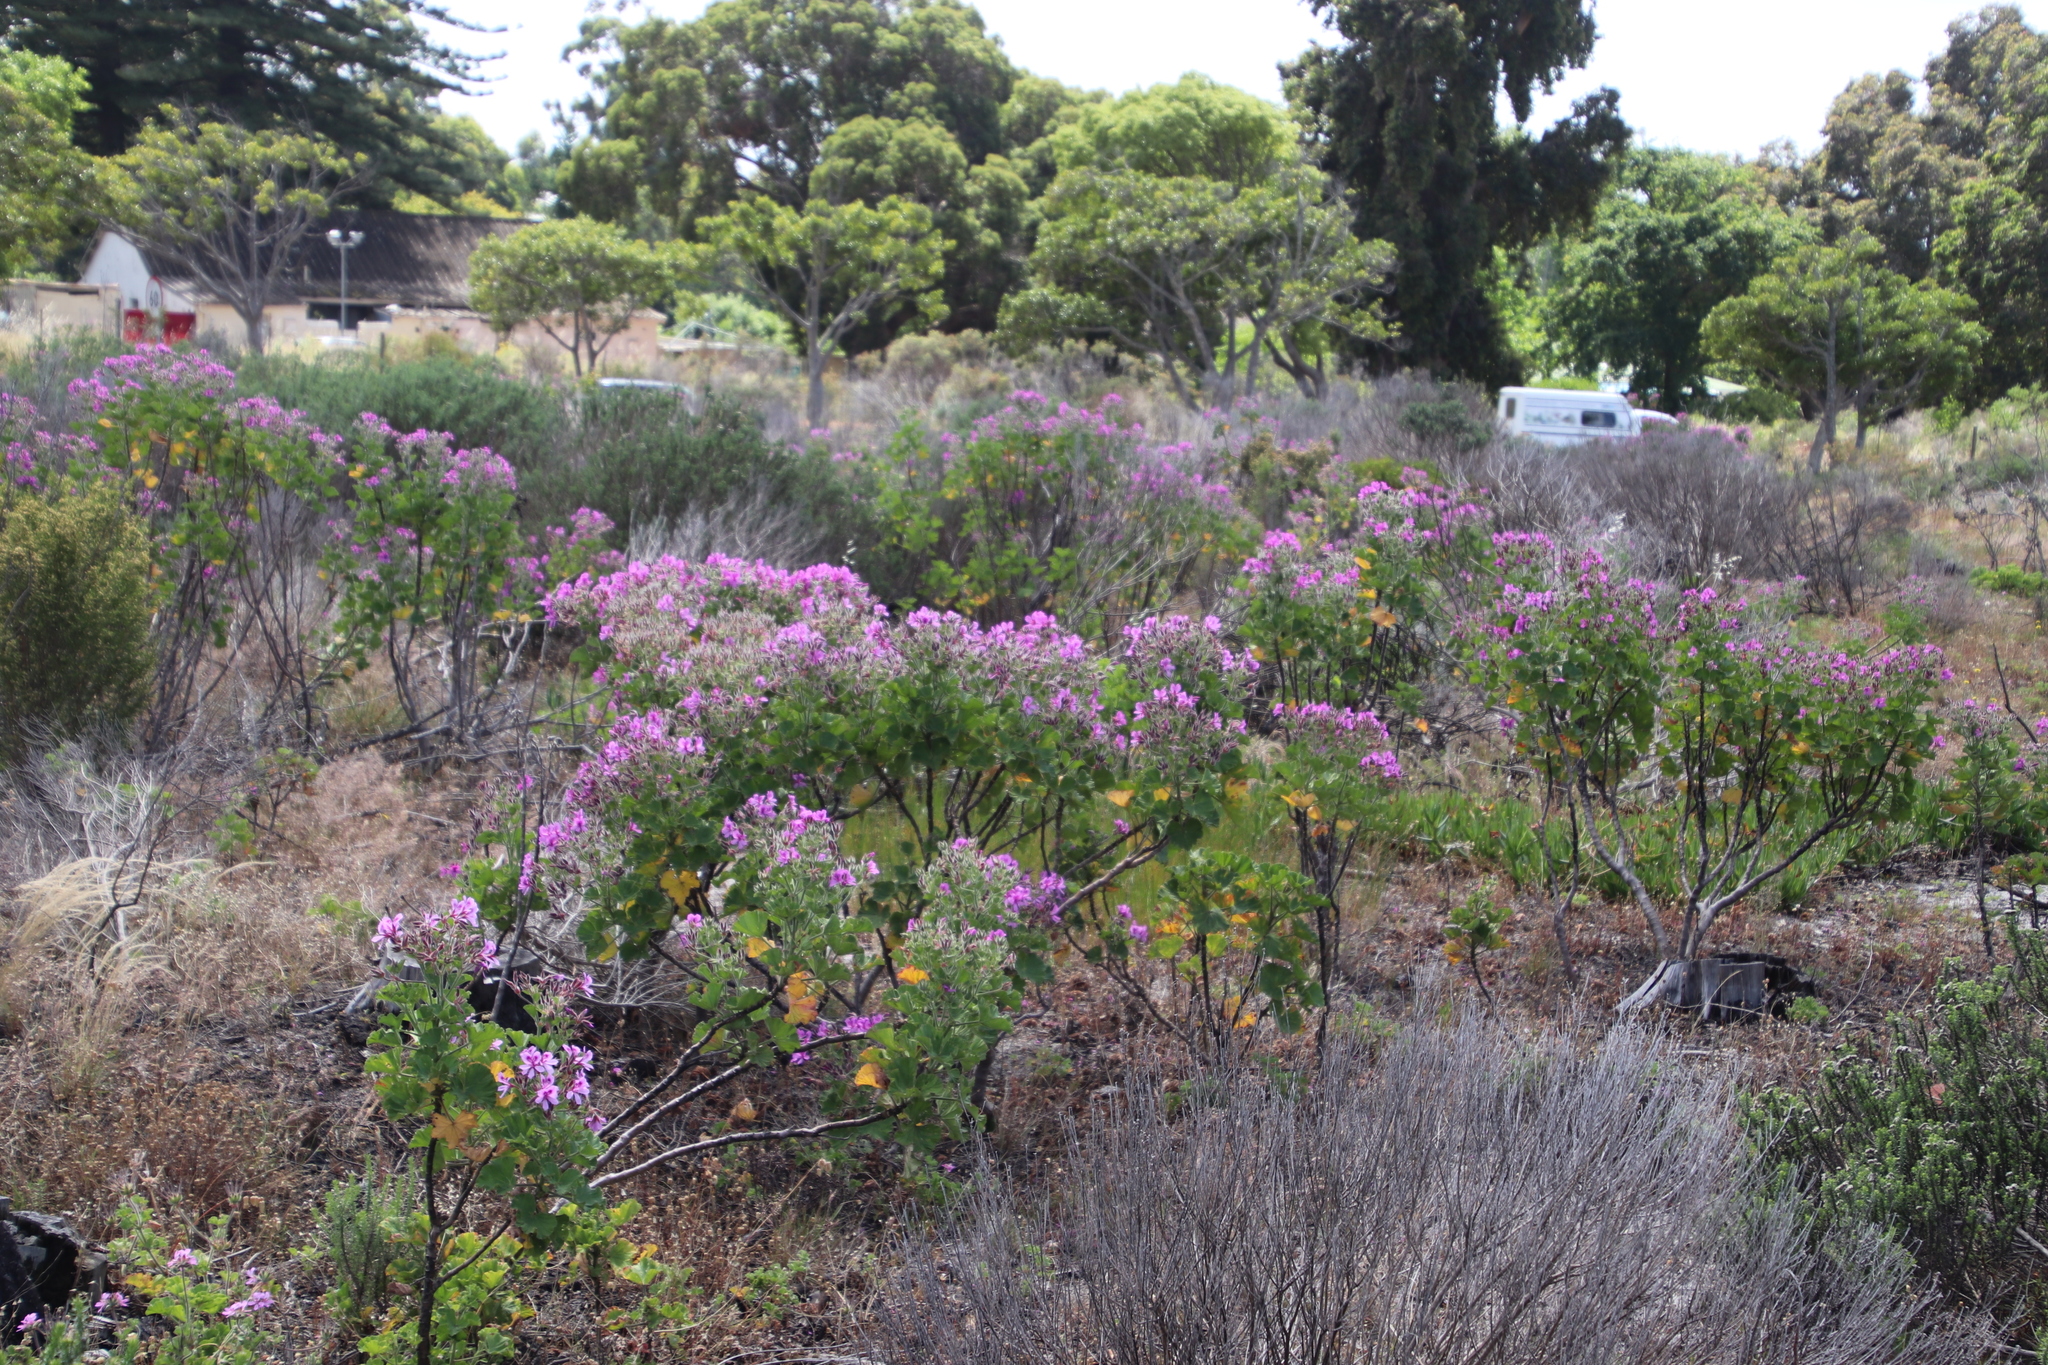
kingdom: Plantae
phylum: Tracheophyta
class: Magnoliopsida
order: Geraniales
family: Geraniaceae
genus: Pelargonium
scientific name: Pelargonium cucullatum
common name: Tree pelargonium
